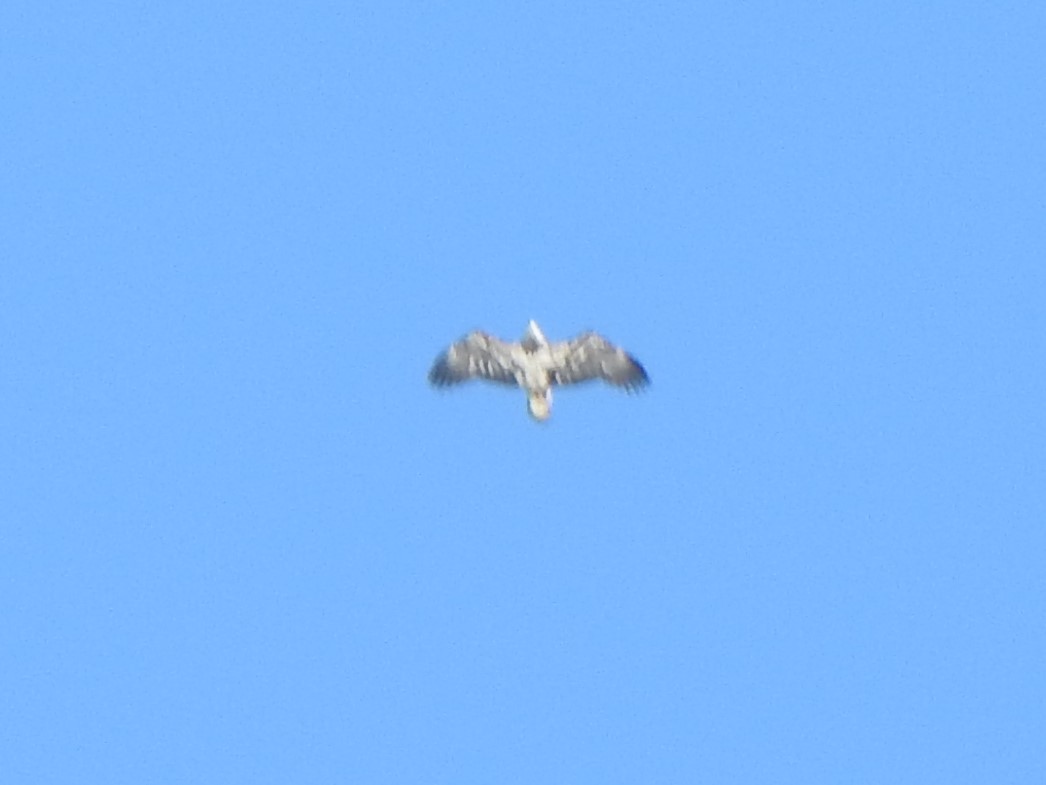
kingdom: Animalia
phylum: Chordata
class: Aves
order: Accipitriformes
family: Accipitridae
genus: Haliaeetus
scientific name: Haliaeetus leucocephalus
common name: Bald eagle
